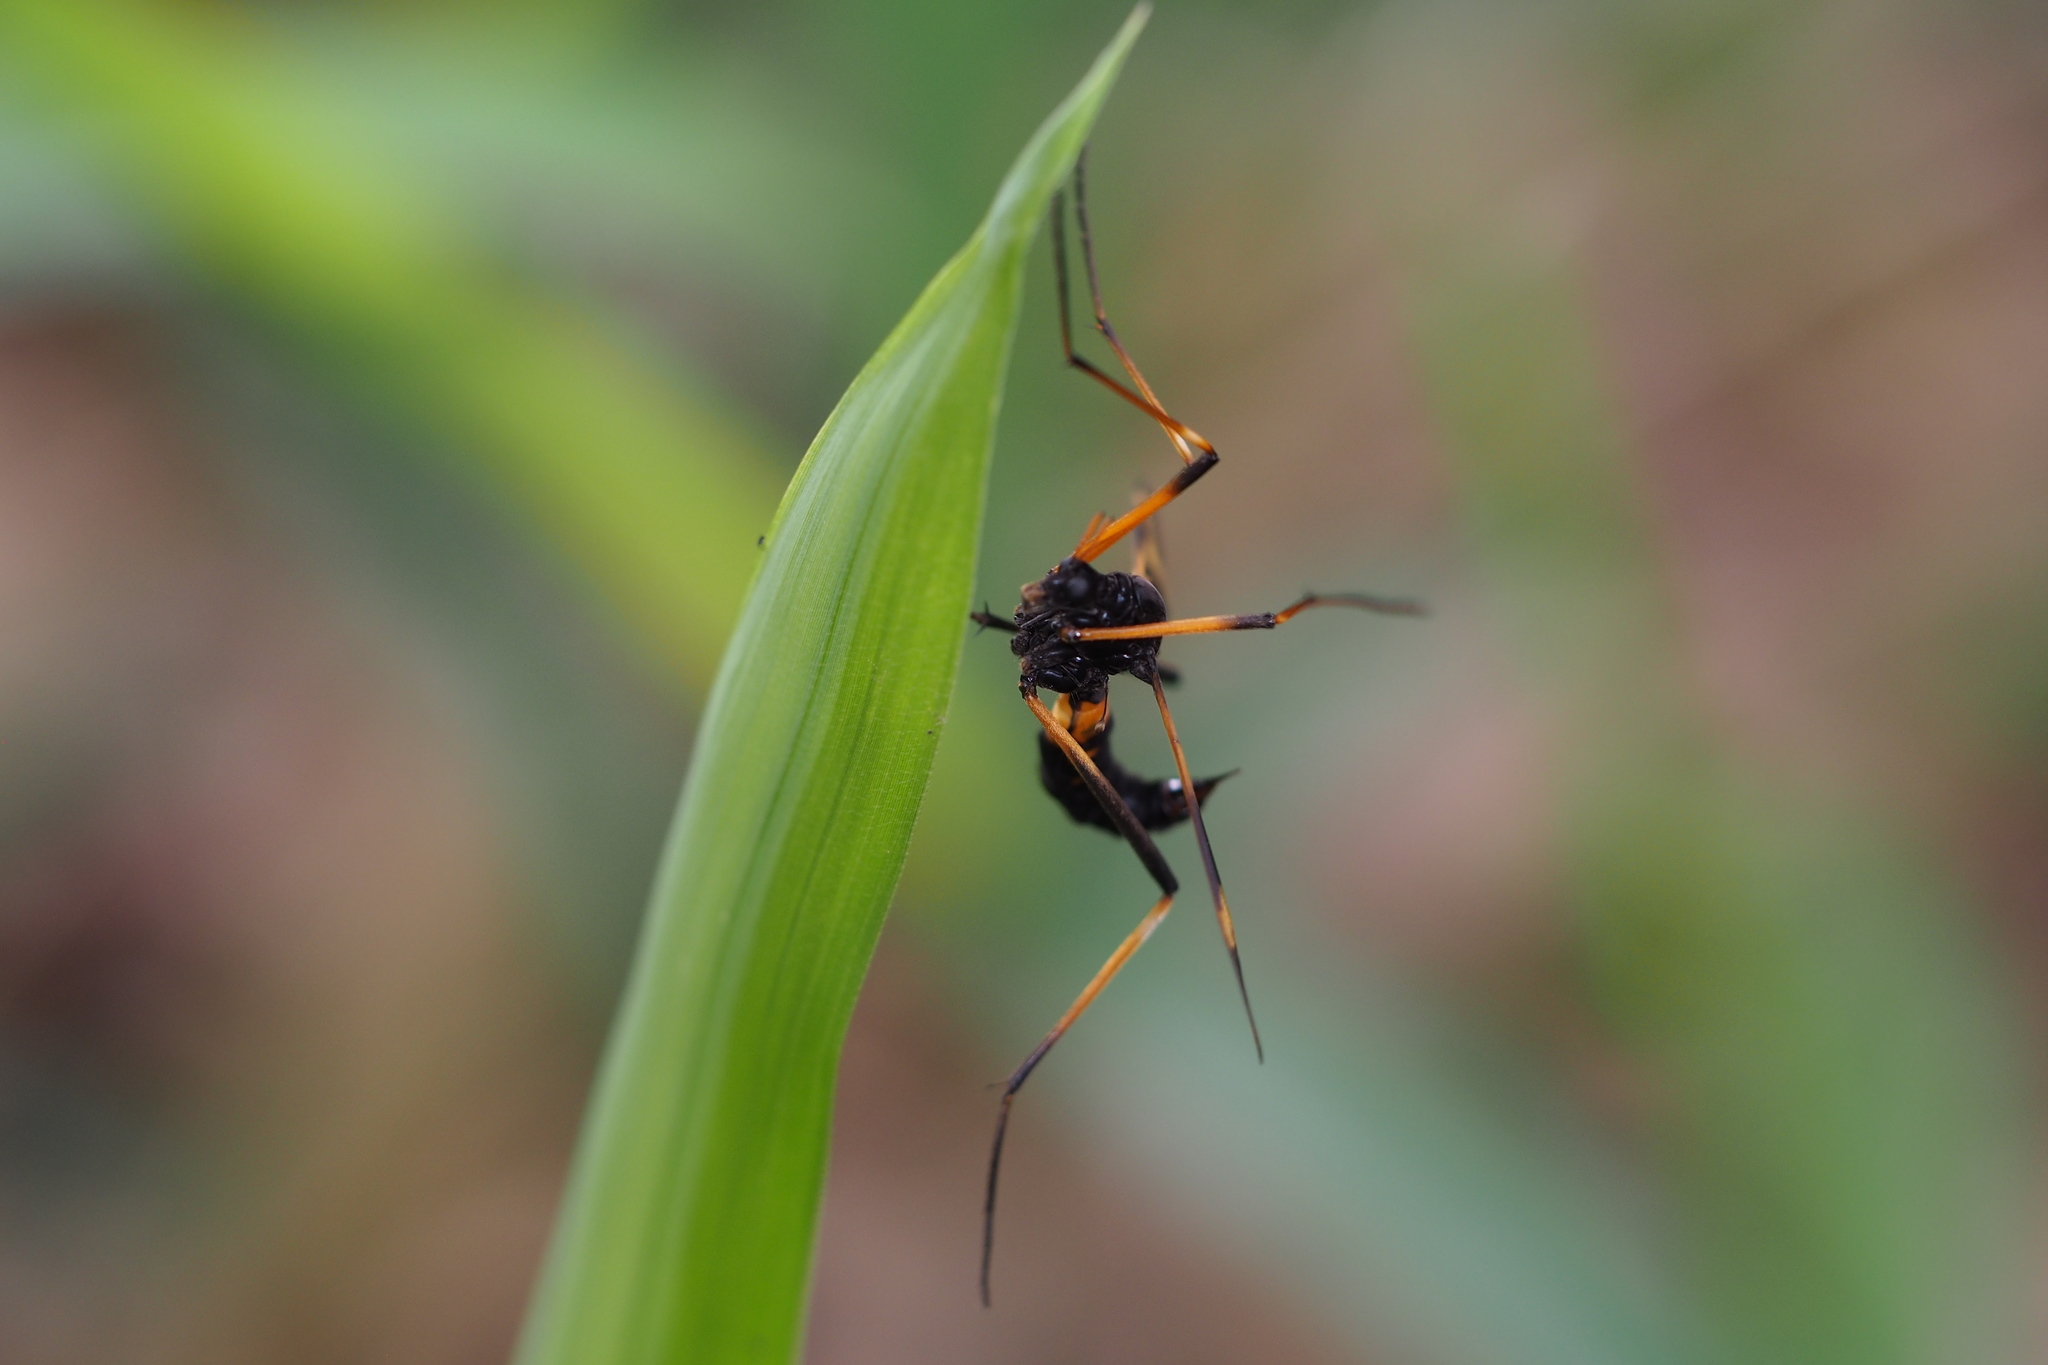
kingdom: Animalia
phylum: Arthropoda
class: Insecta
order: Diptera
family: Tipulidae
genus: Pselliophora
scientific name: Pselliophora bifascipennis
